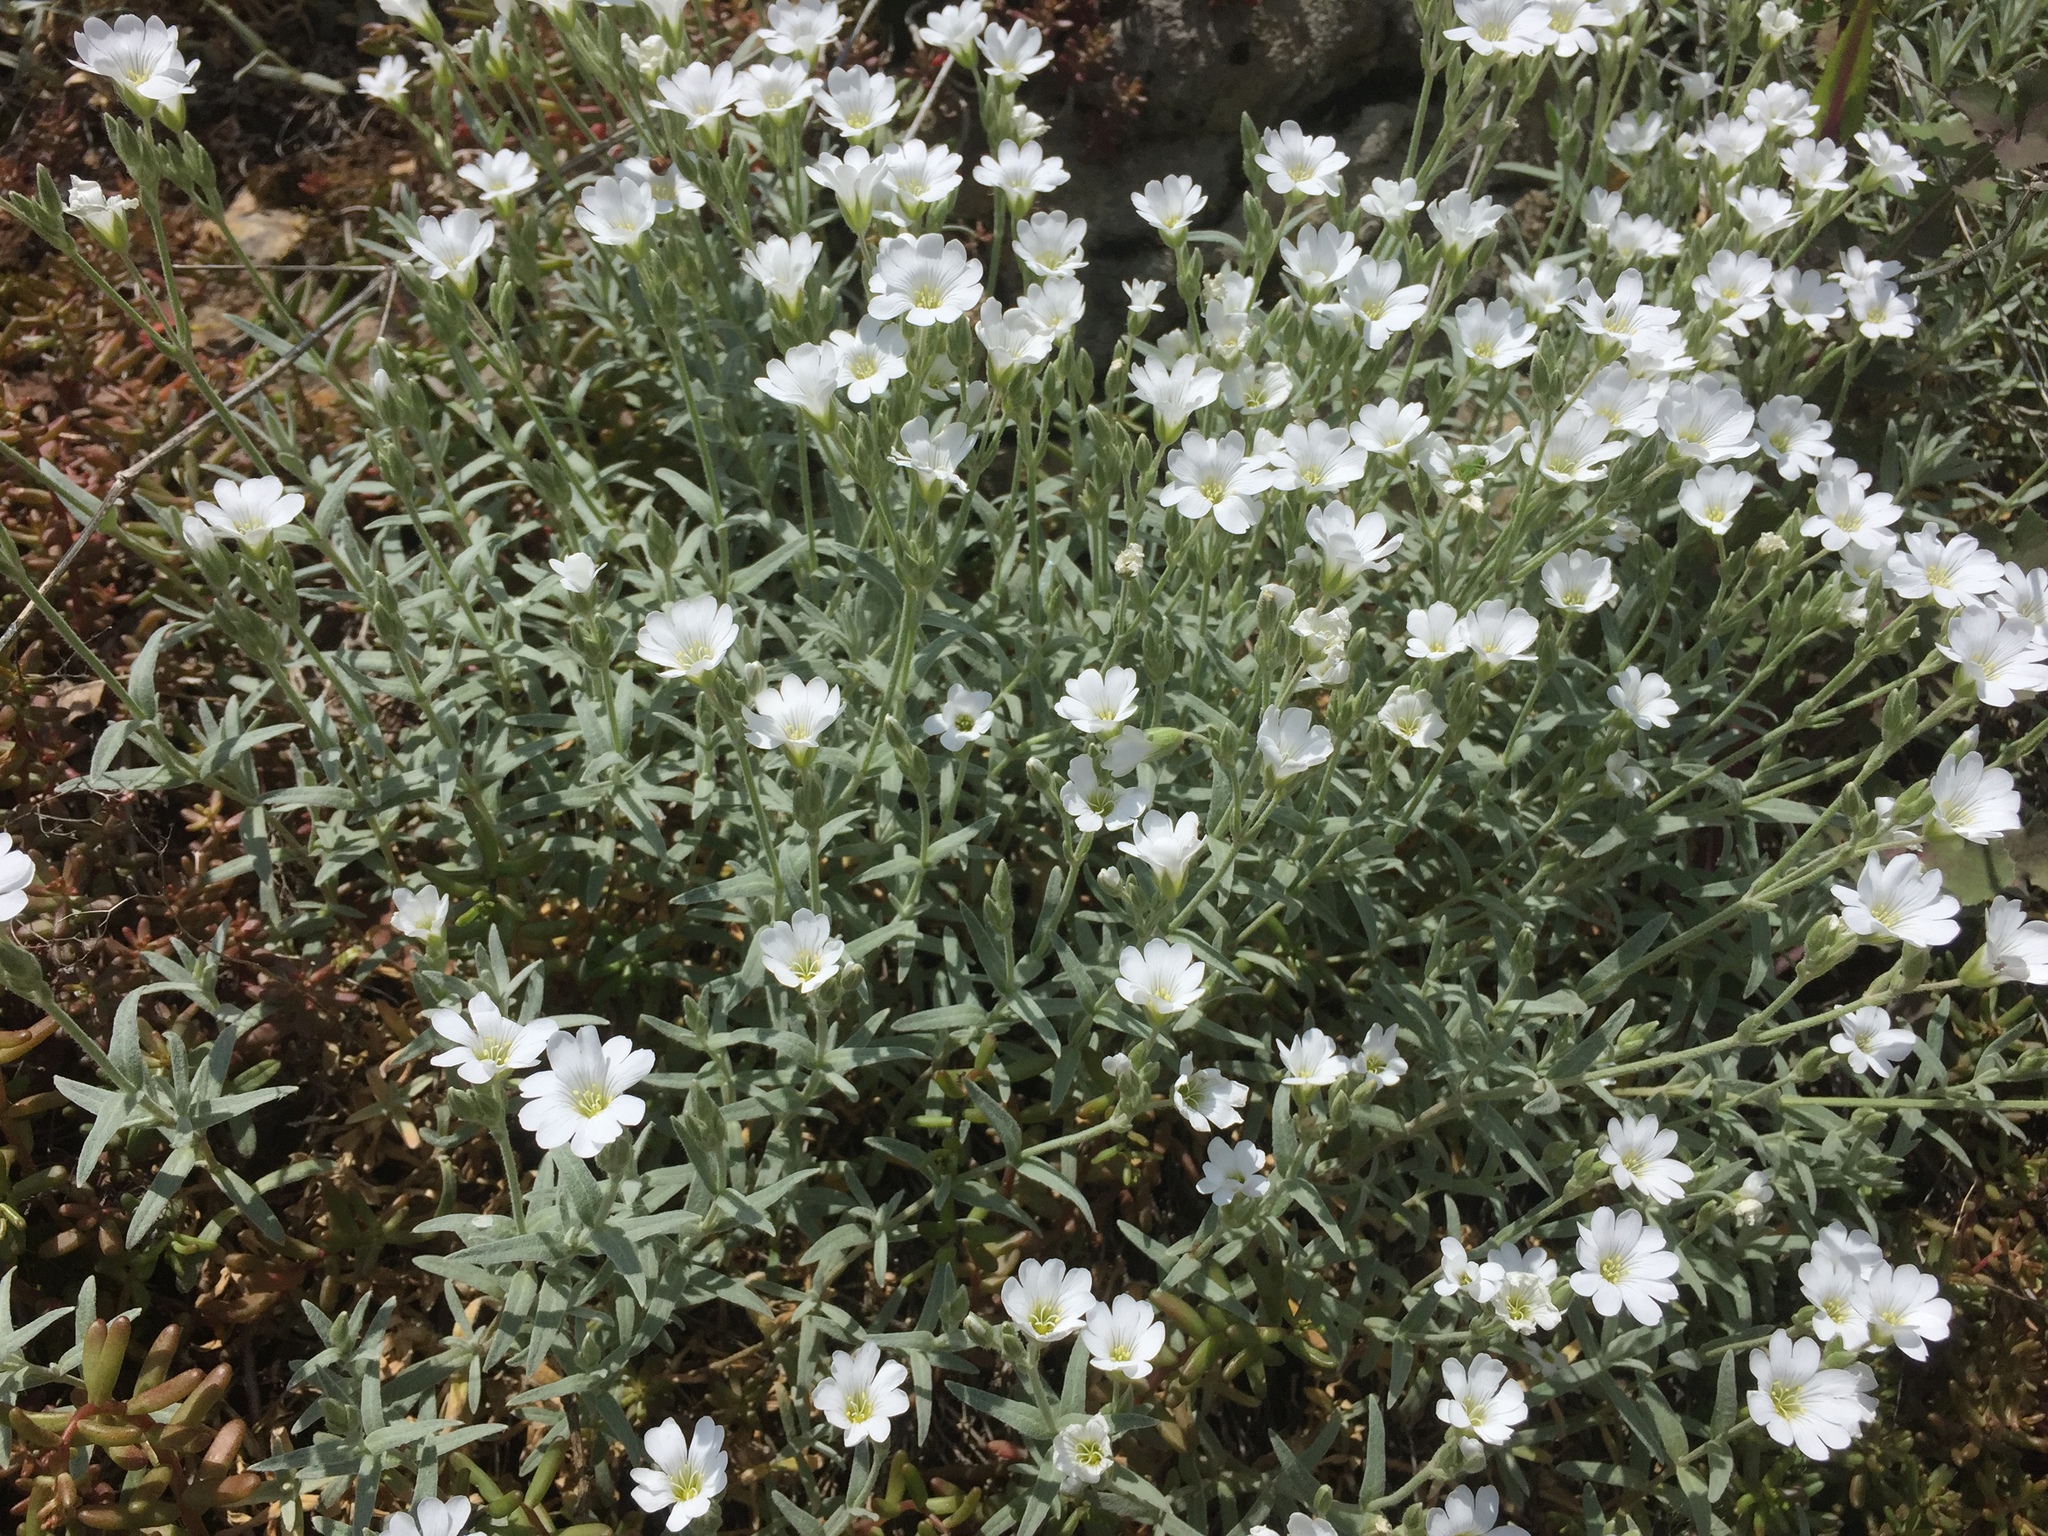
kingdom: Plantae
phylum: Tracheophyta
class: Magnoliopsida
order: Caryophyllales
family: Caryophyllaceae
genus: Cerastium
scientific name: Cerastium tomentosum
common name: Snow-in-summer
